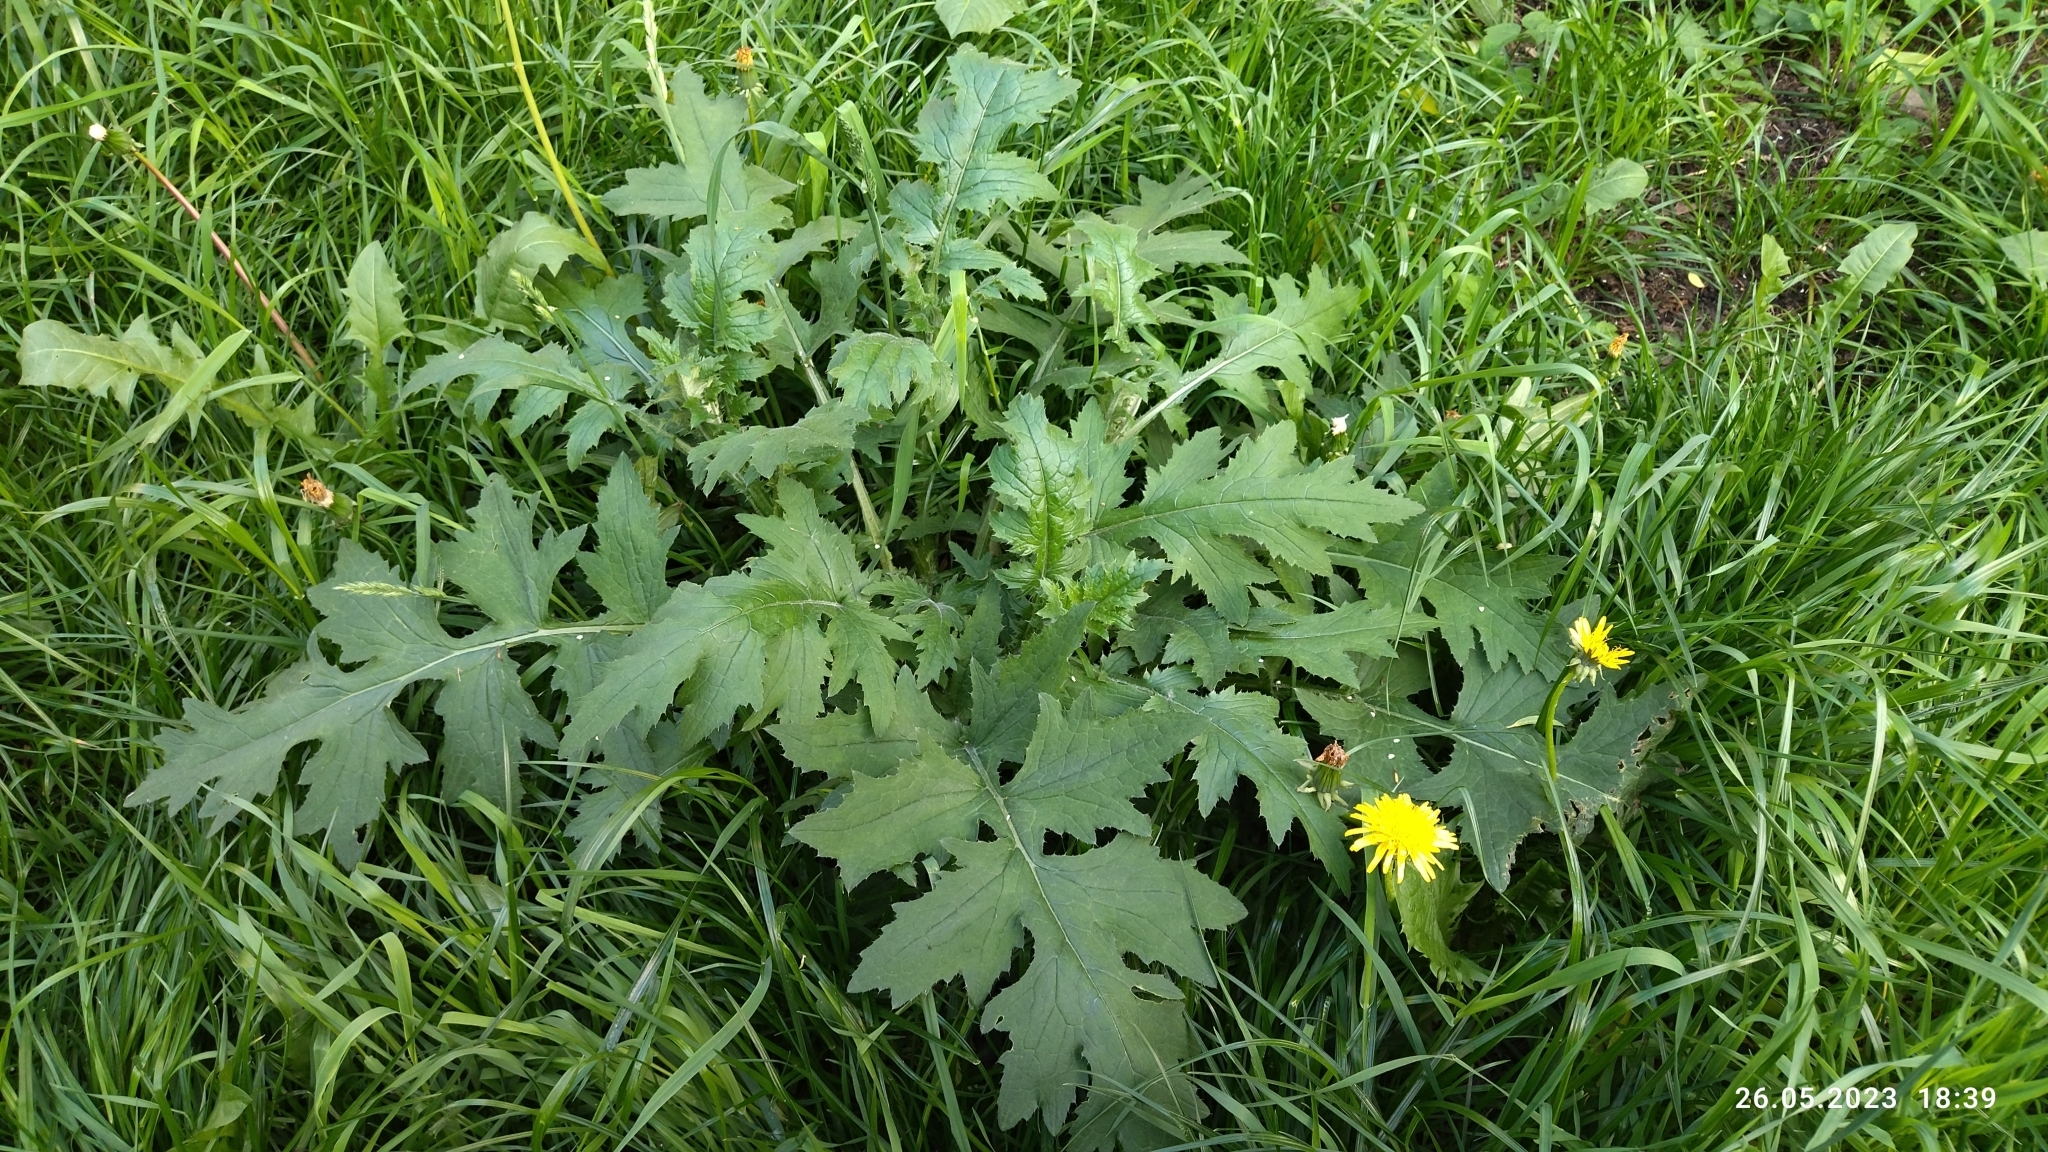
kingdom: Plantae
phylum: Tracheophyta
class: Magnoliopsida
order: Asterales
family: Asteraceae
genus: Carduus
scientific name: Carduus crispus
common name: Welted thistle
